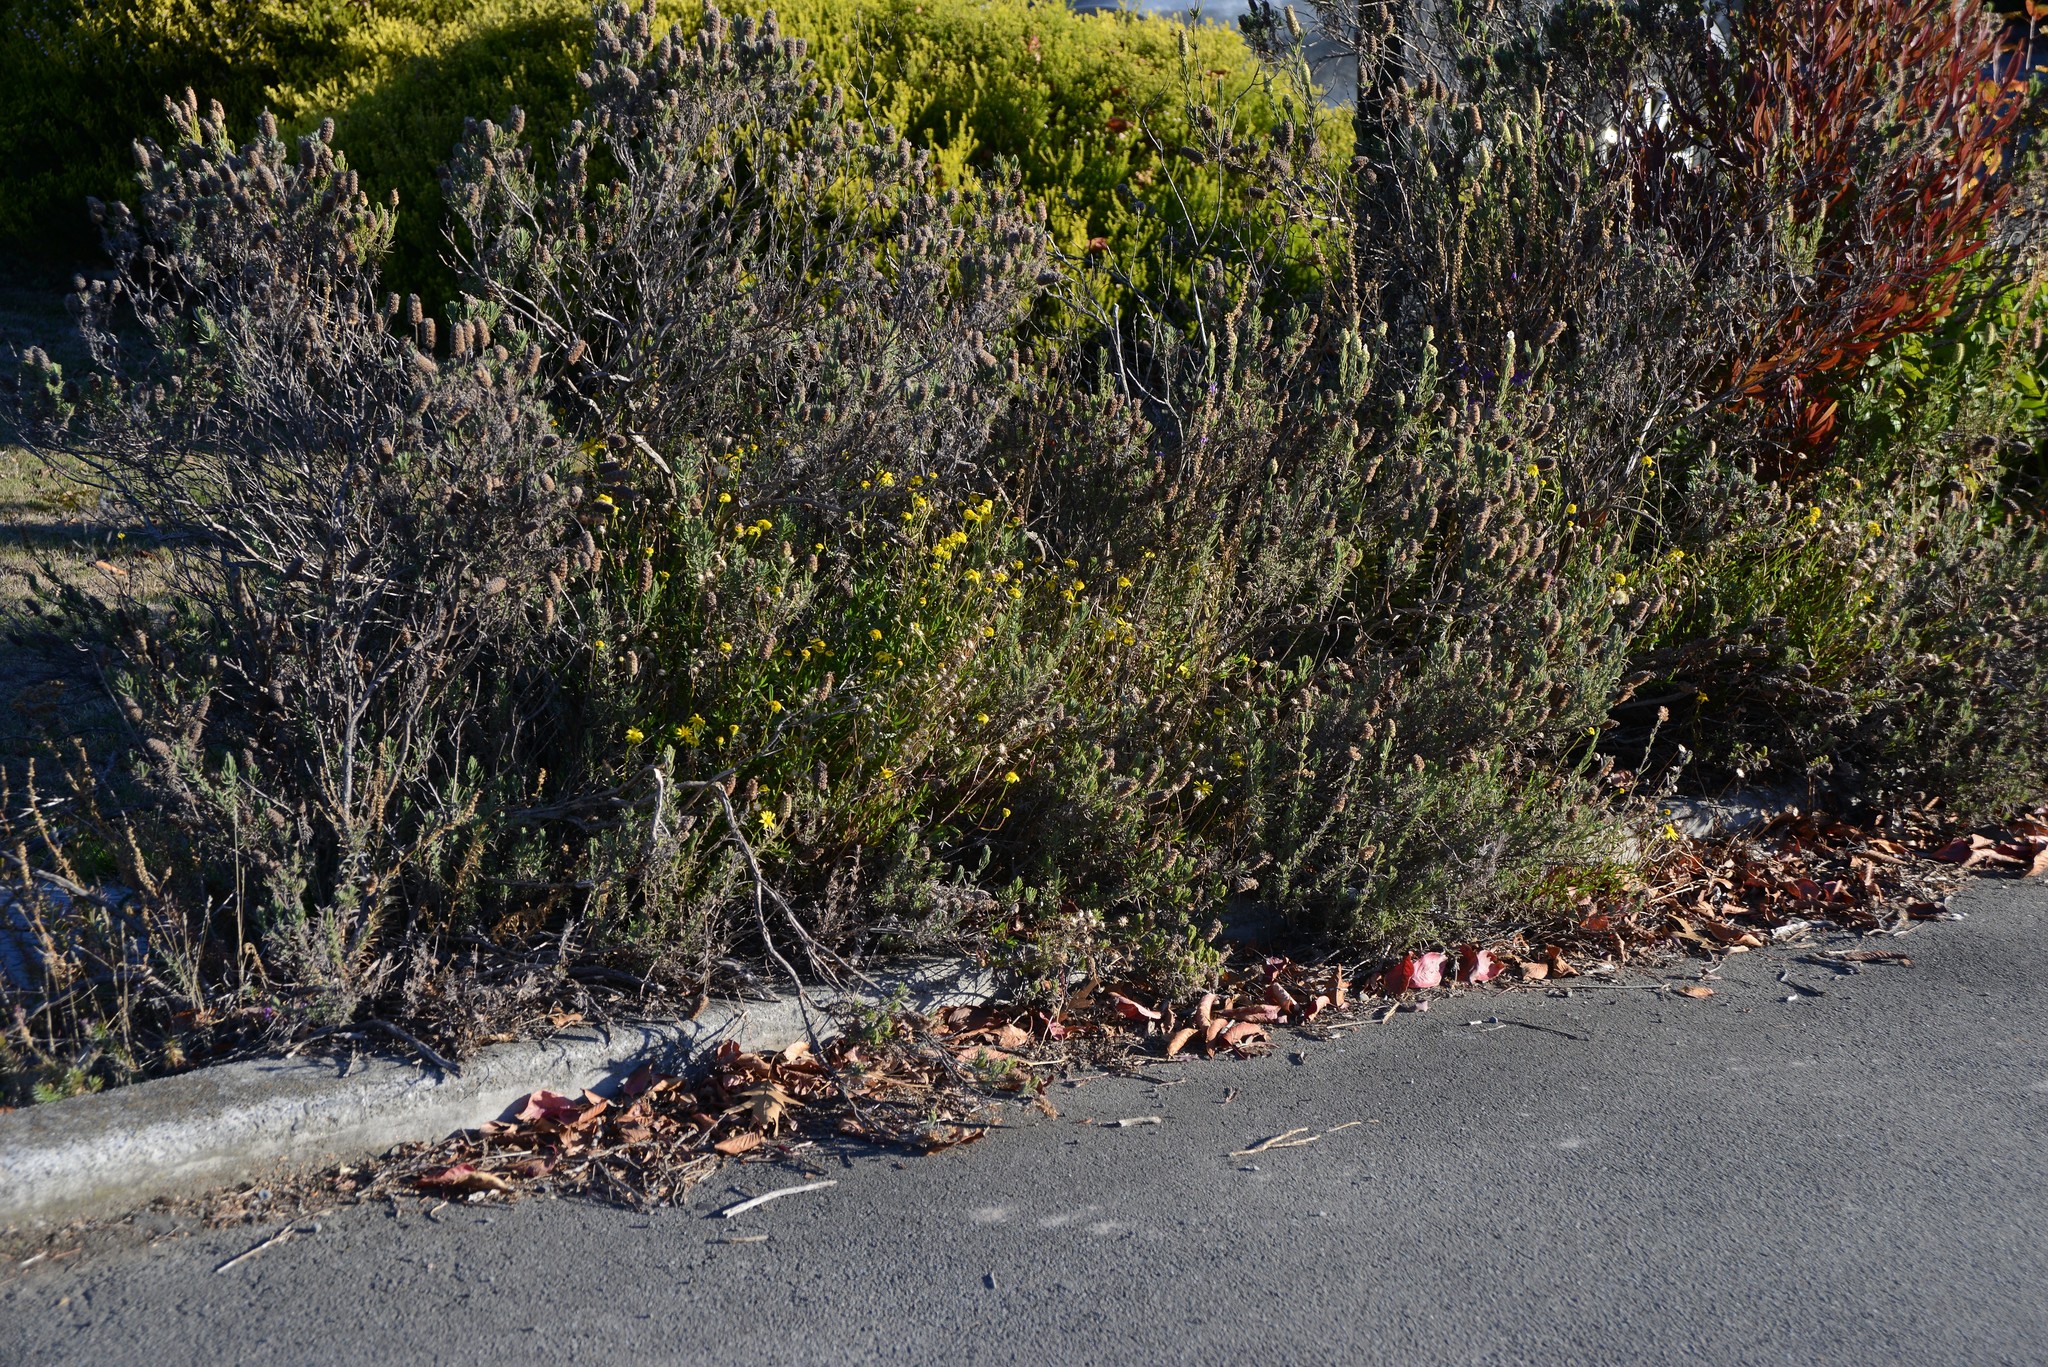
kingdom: Plantae
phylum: Tracheophyta
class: Magnoliopsida
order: Asterales
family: Asteraceae
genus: Senecio
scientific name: Senecio skirrhodon
